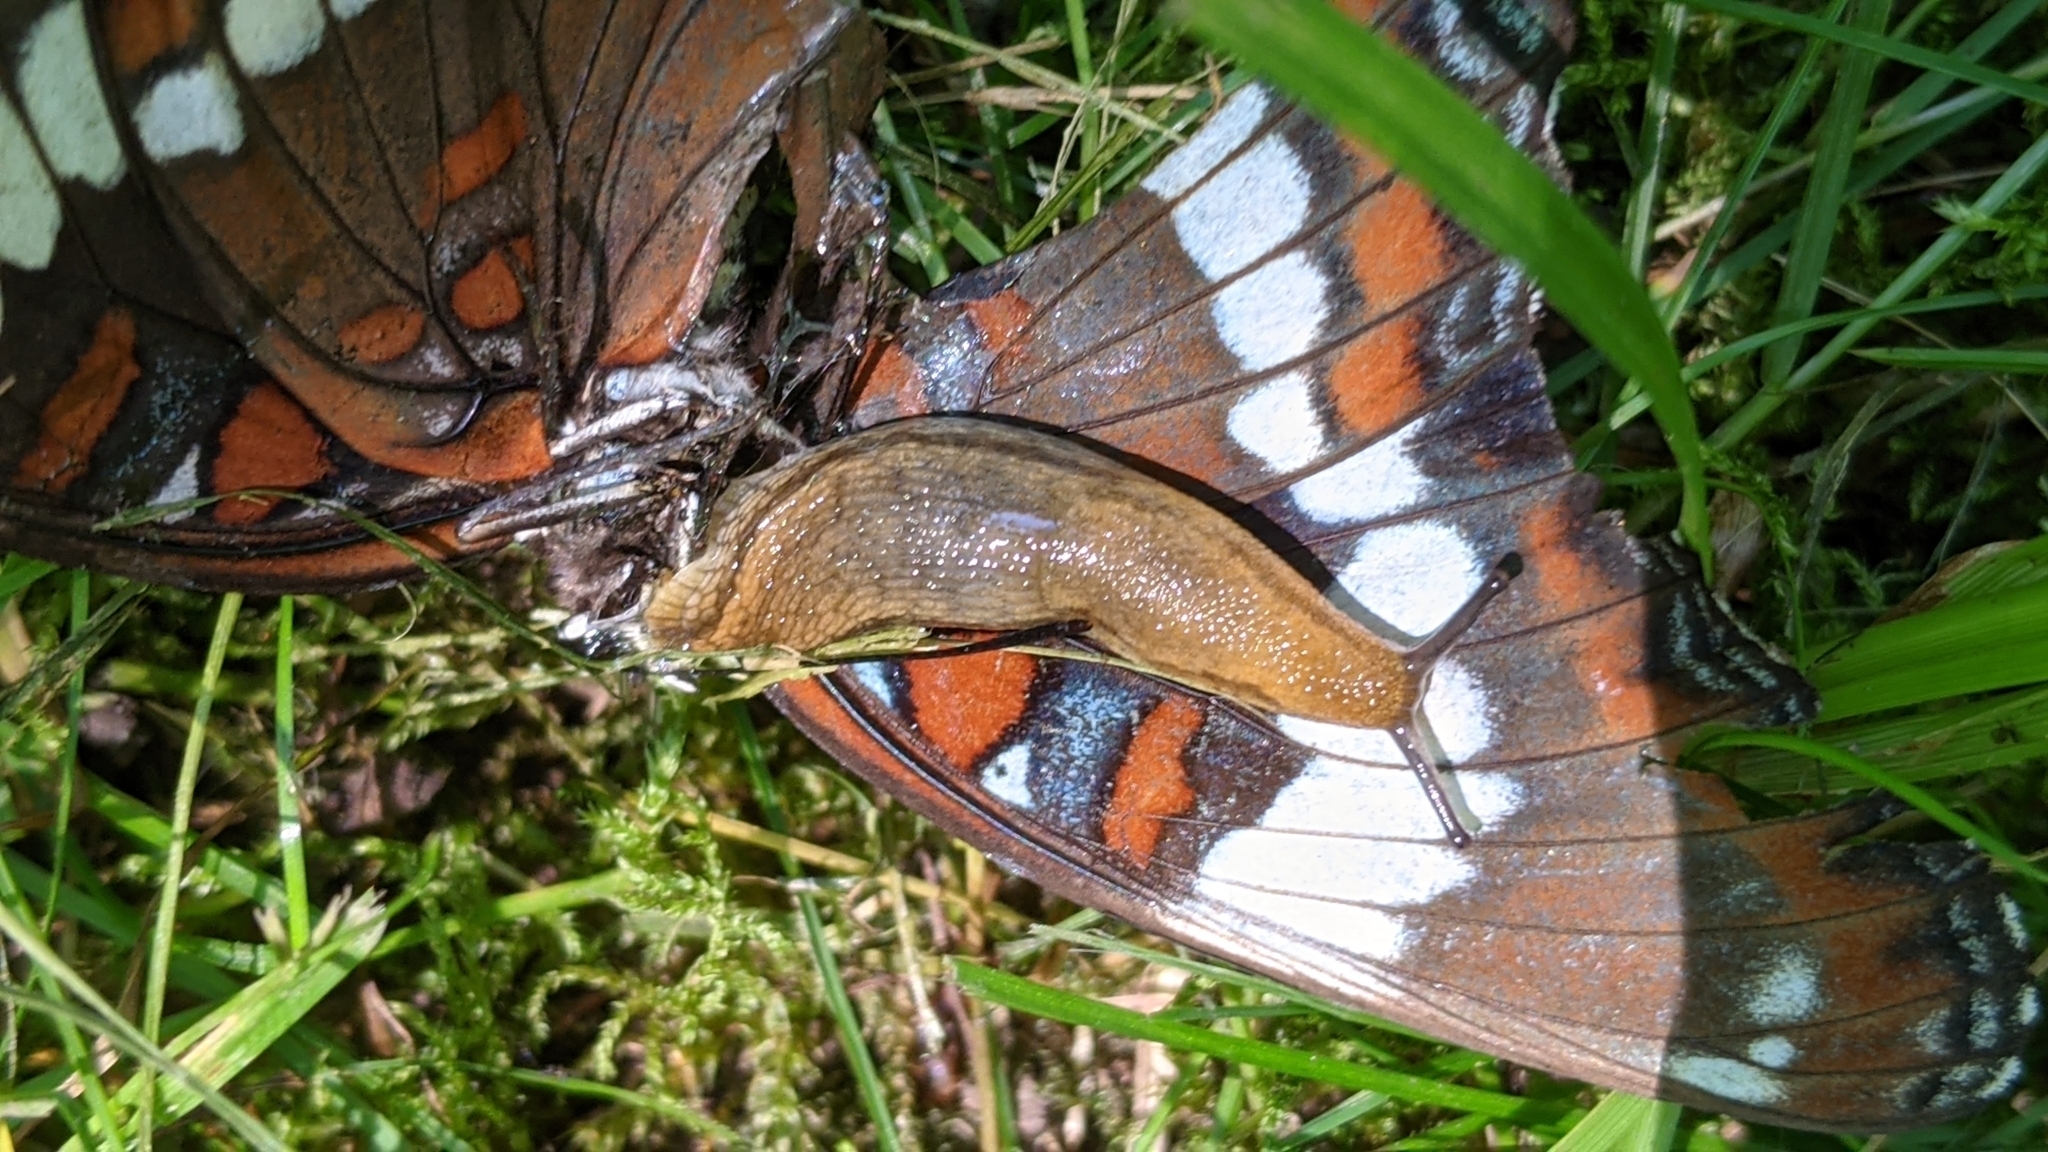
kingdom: Animalia
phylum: Arthropoda
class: Insecta
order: Lepidoptera
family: Nymphalidae
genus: Limenitis
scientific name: Limenitis arthemis
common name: Red-spotted admiral
